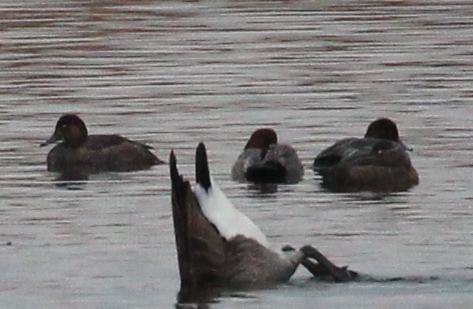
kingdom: Animalia
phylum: Chordata
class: Aves
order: Anseriformes
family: Anatidae
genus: Aythya
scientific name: Aythya americana
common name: Redhead
